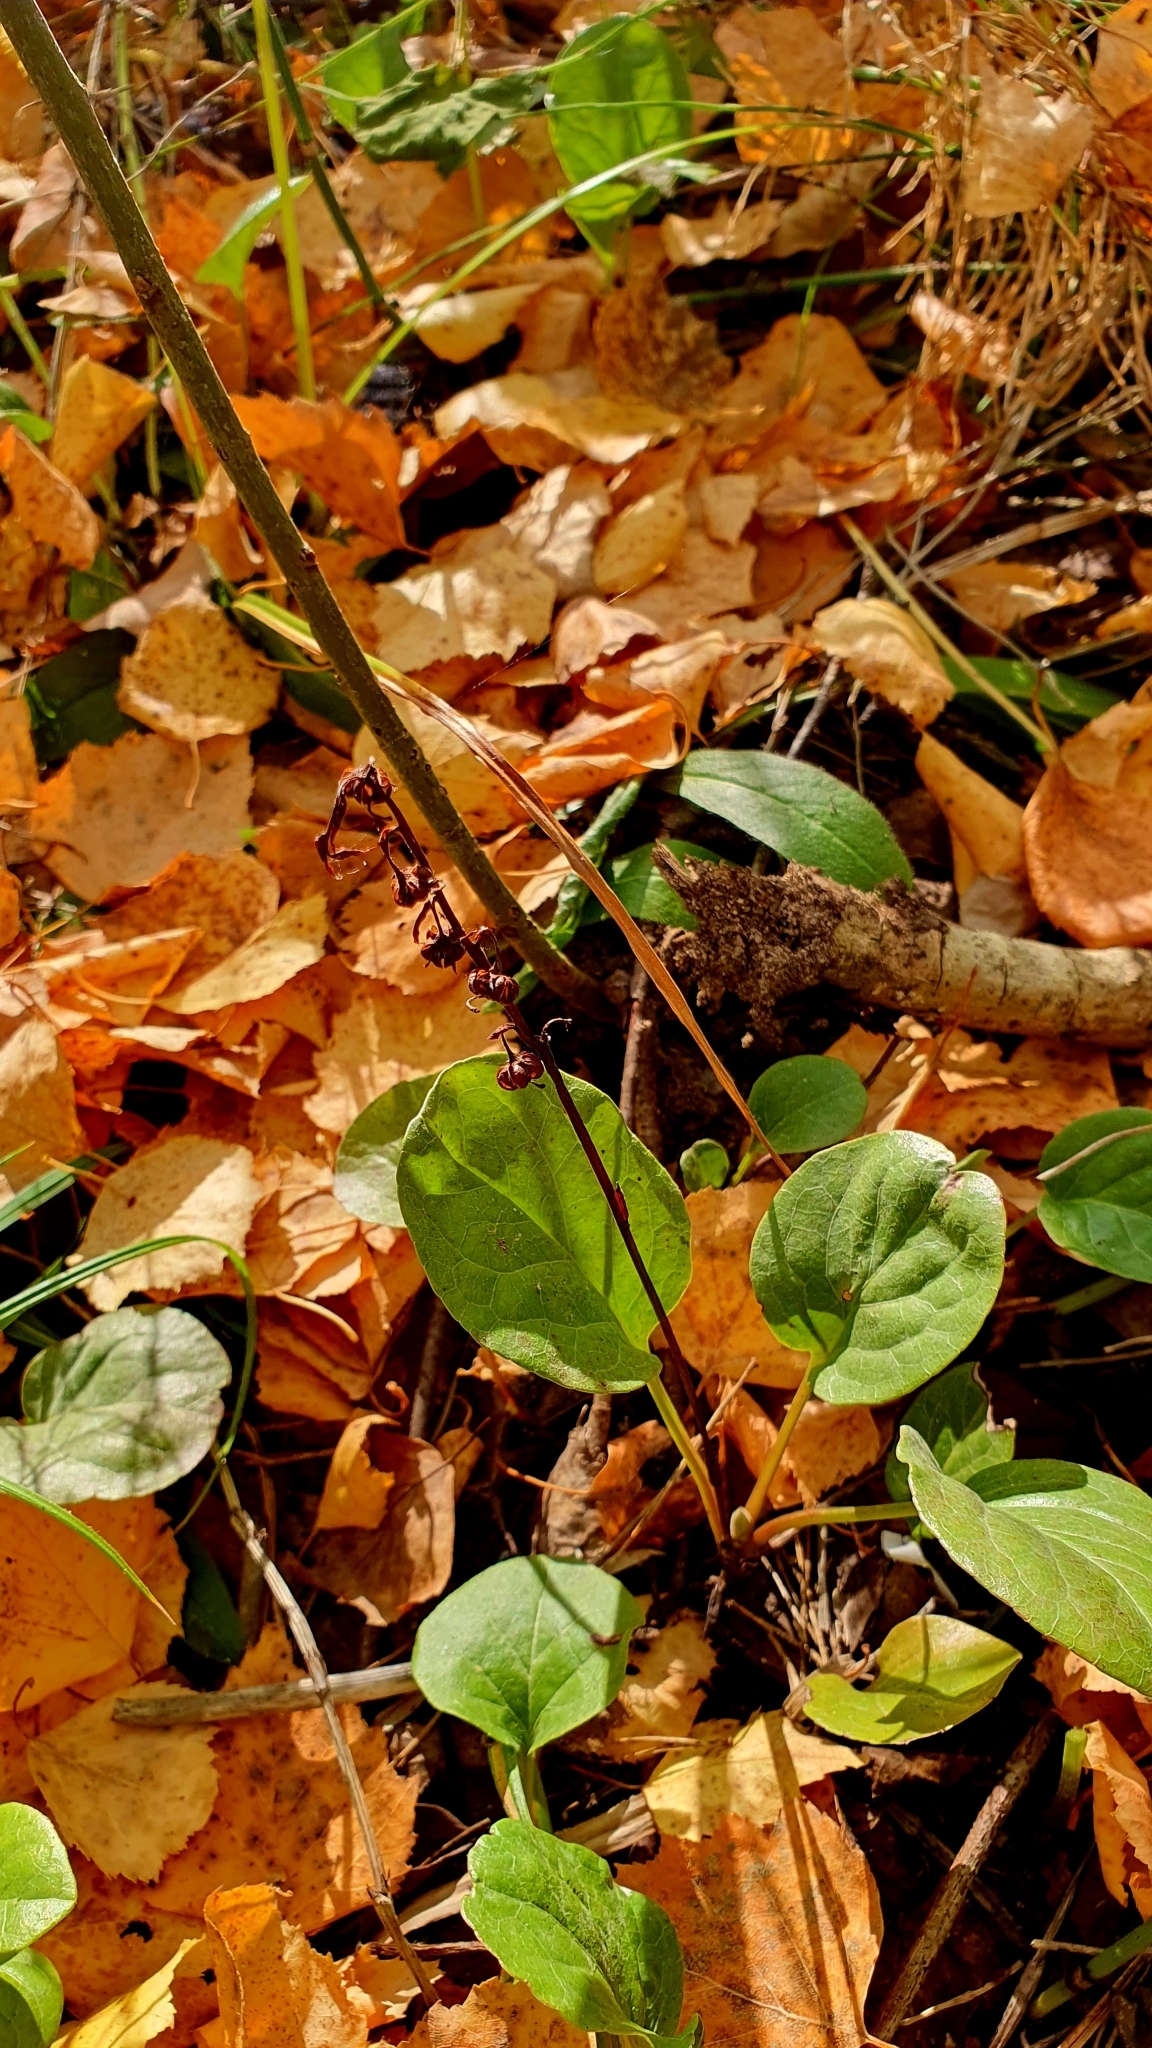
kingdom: Plantae
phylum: Tracheophyta
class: Magnoliopsida
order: Ericales
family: Ericaceae
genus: Pyrola
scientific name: Pyrola rotundifolia
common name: Round-leaved wintergreen
